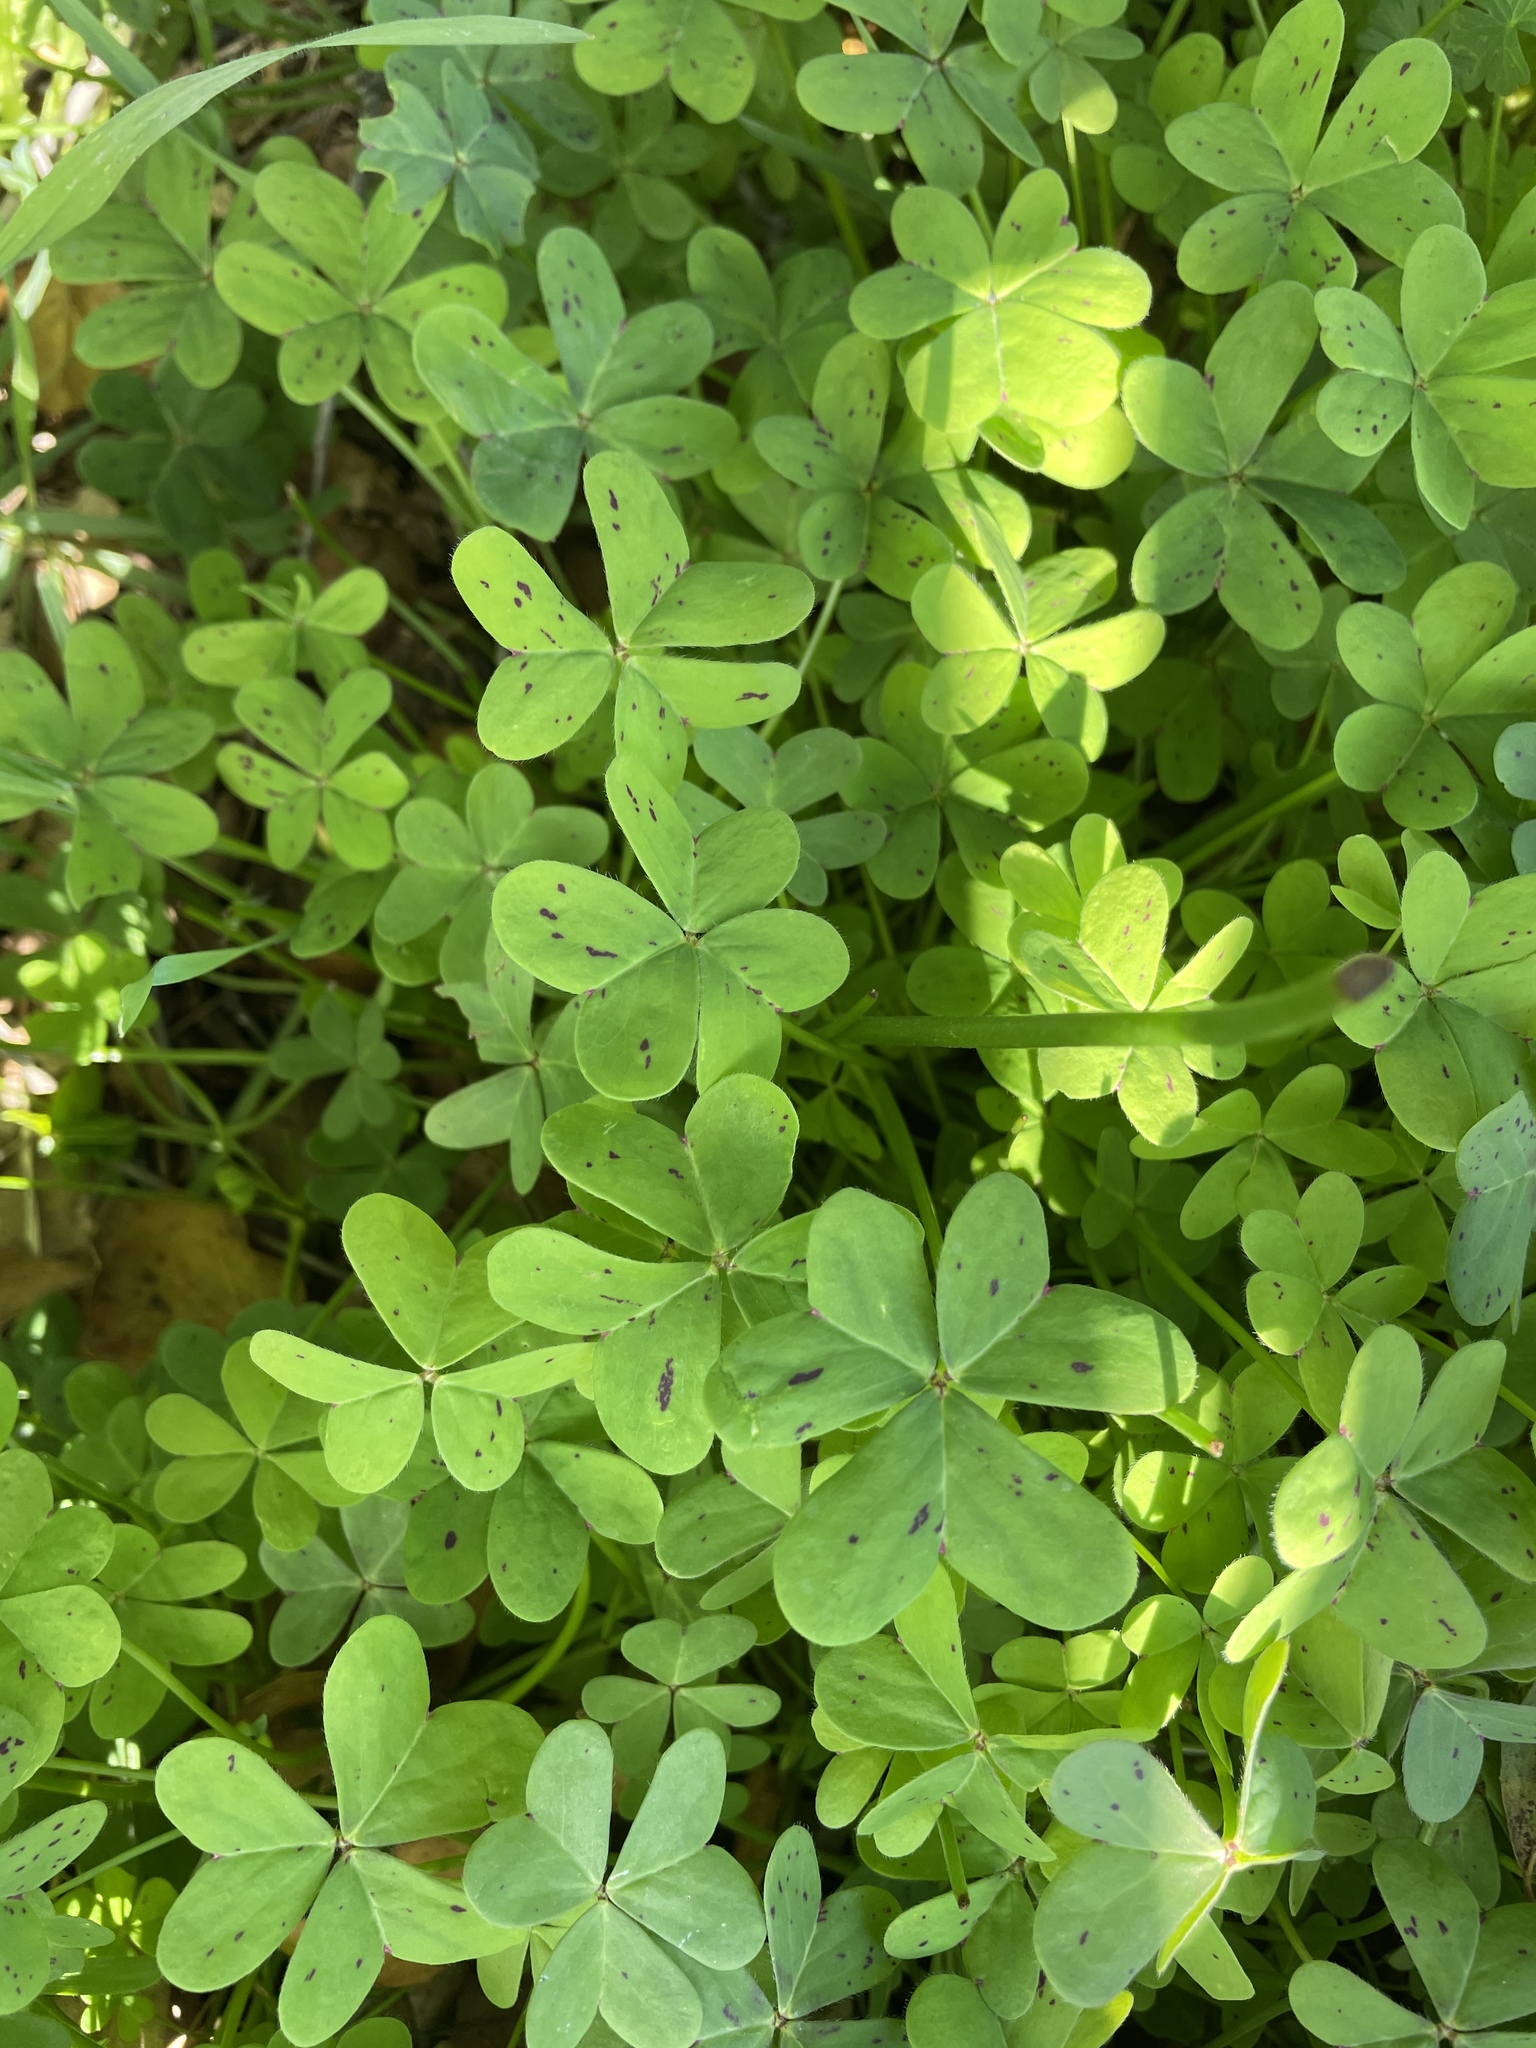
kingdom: Plantae
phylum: Tracheophyta
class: Magnoliopsida
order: Oxalidales
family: Oxalidaceae
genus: Oxalis
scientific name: Oxalis pes-caprae
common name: Bermuda-buttercup
